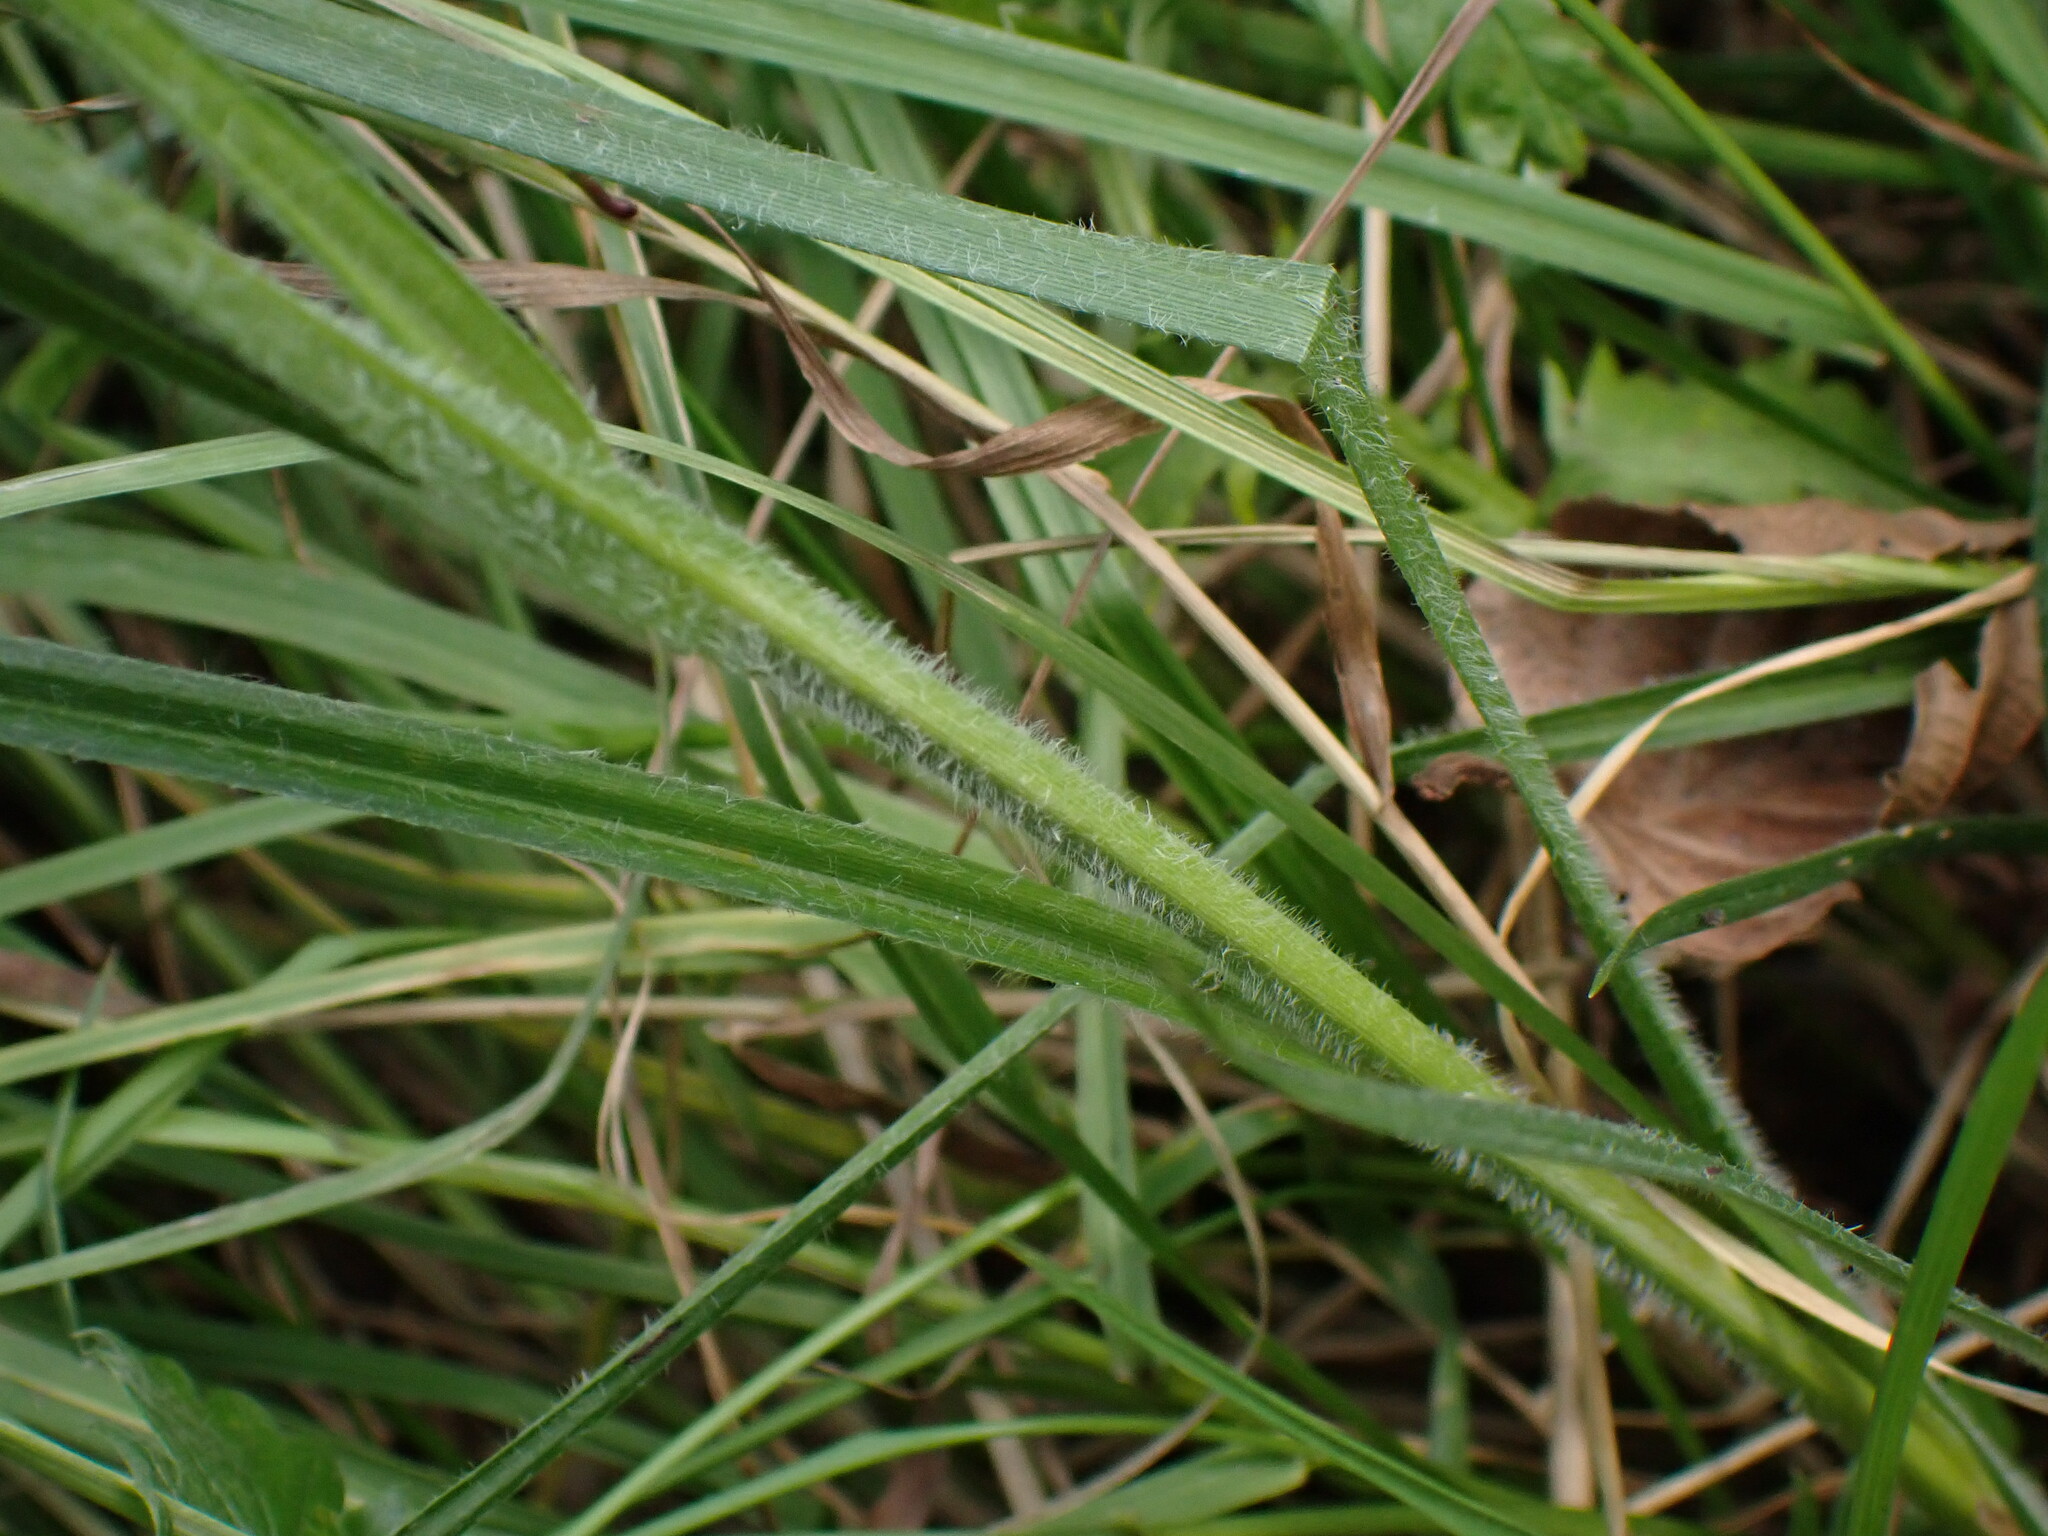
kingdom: Plantae
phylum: Tracheophyta
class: Liliopsida
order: Poales
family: Cyperaceae
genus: Carex
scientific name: Carex hirta
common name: Hairy sedge
